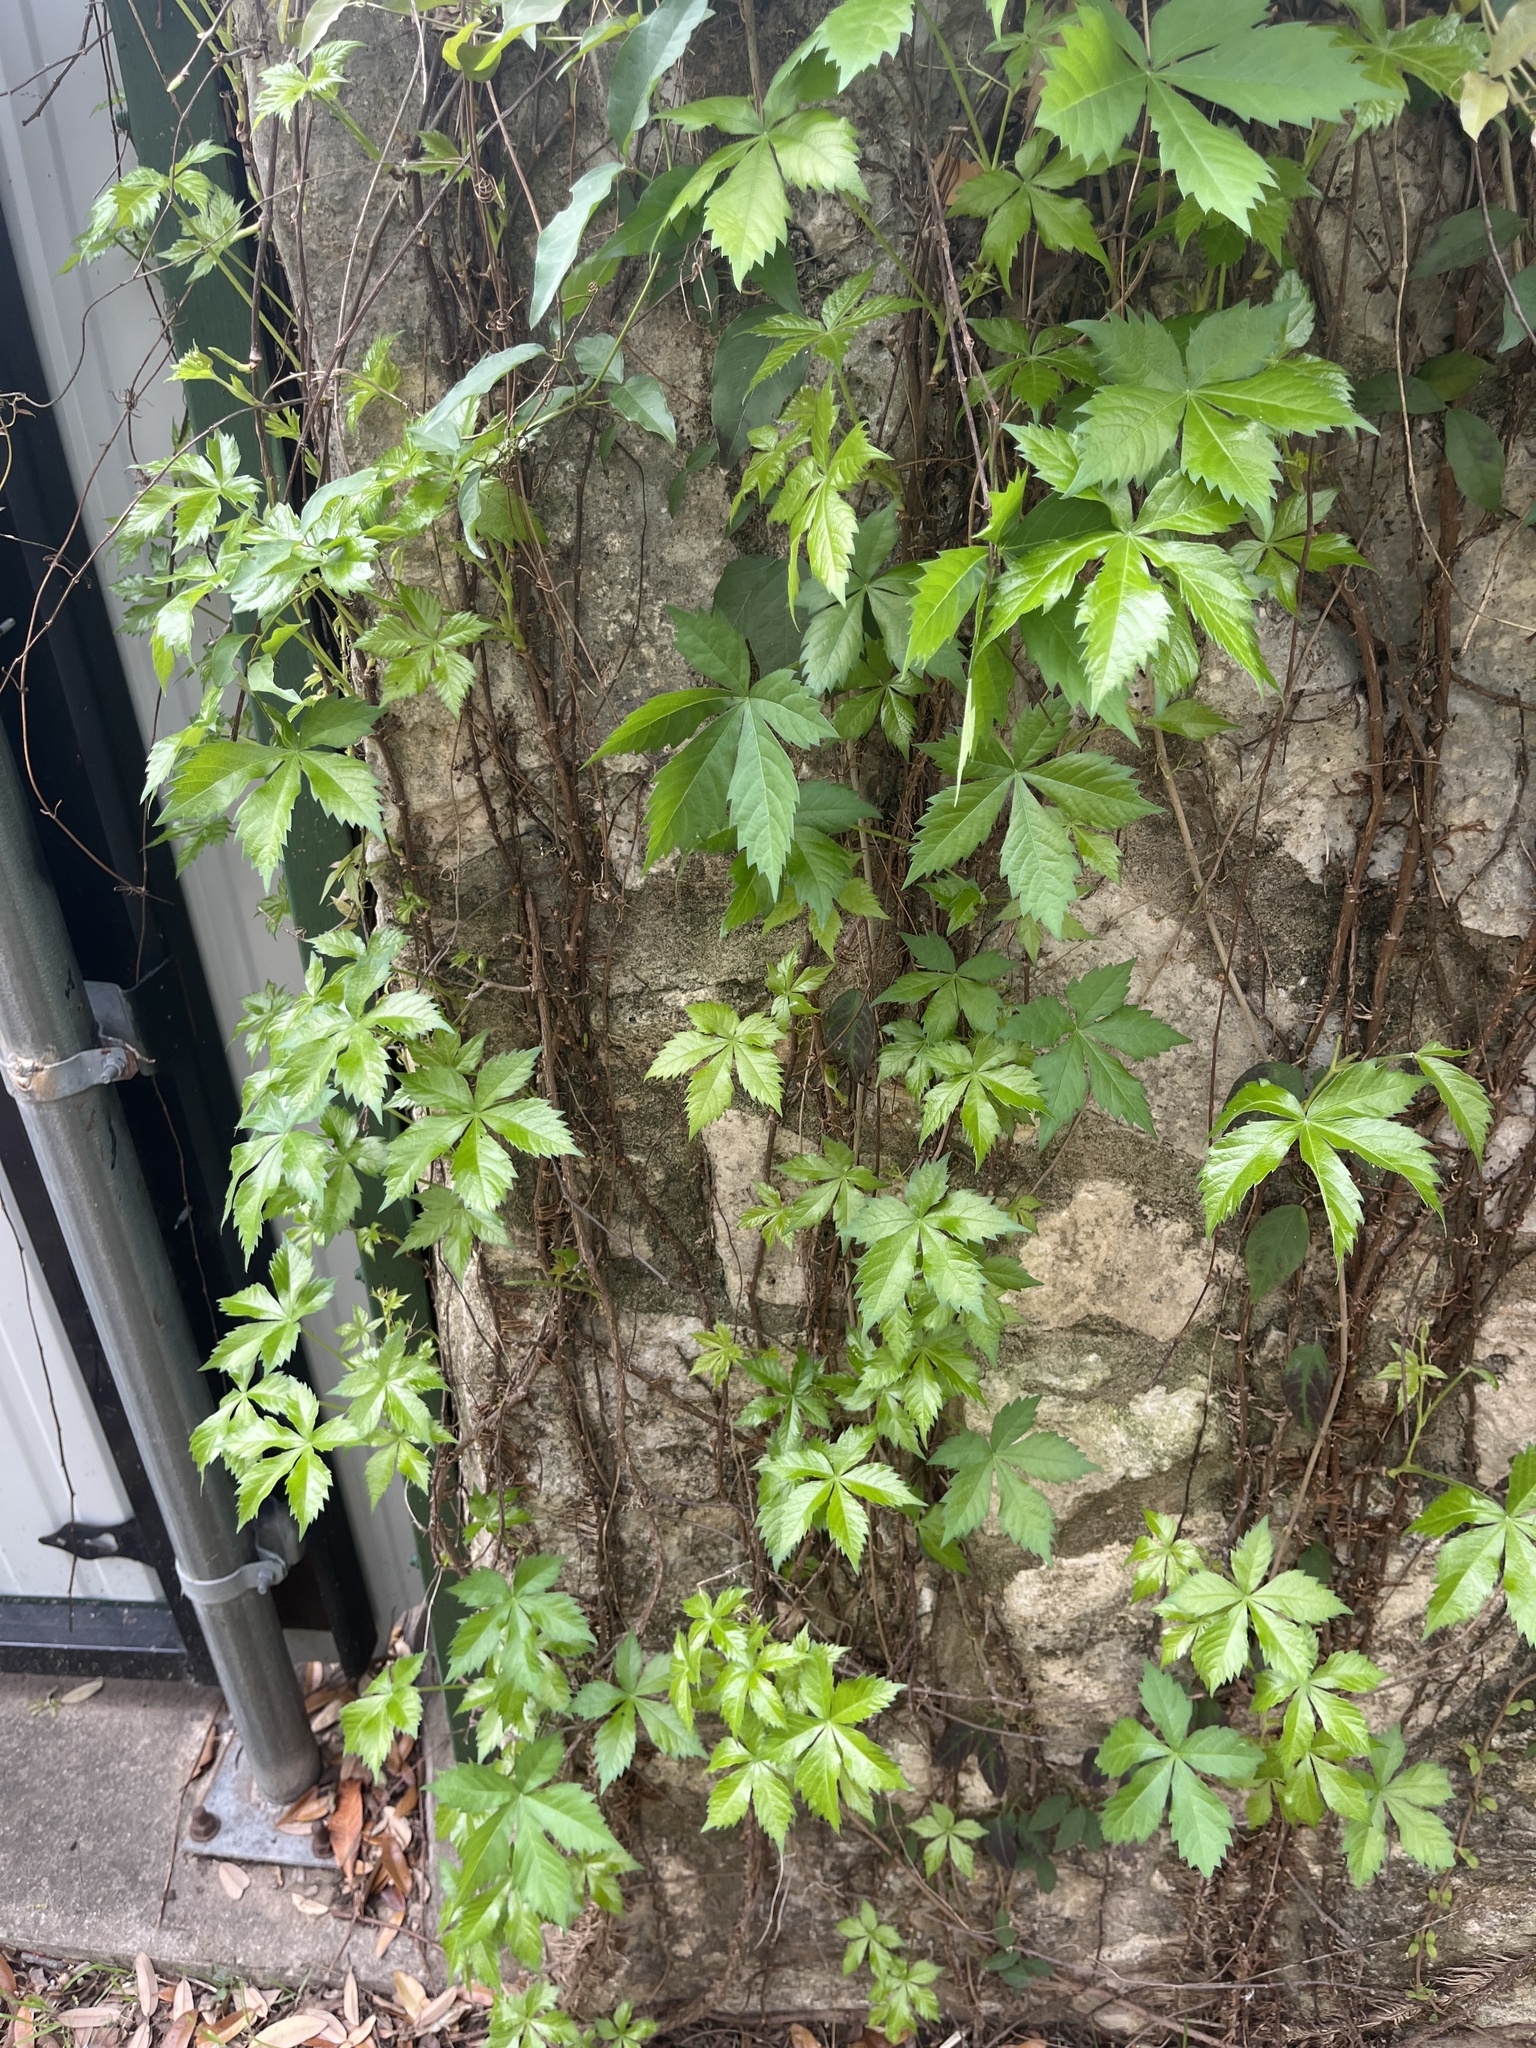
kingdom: Plantae
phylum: Tracheophyta
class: Magnoliopsida
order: Vitales
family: Vitaceae
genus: Parthenocissus
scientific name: Parthenocissus quinquefolia
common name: Virginia-creeper
